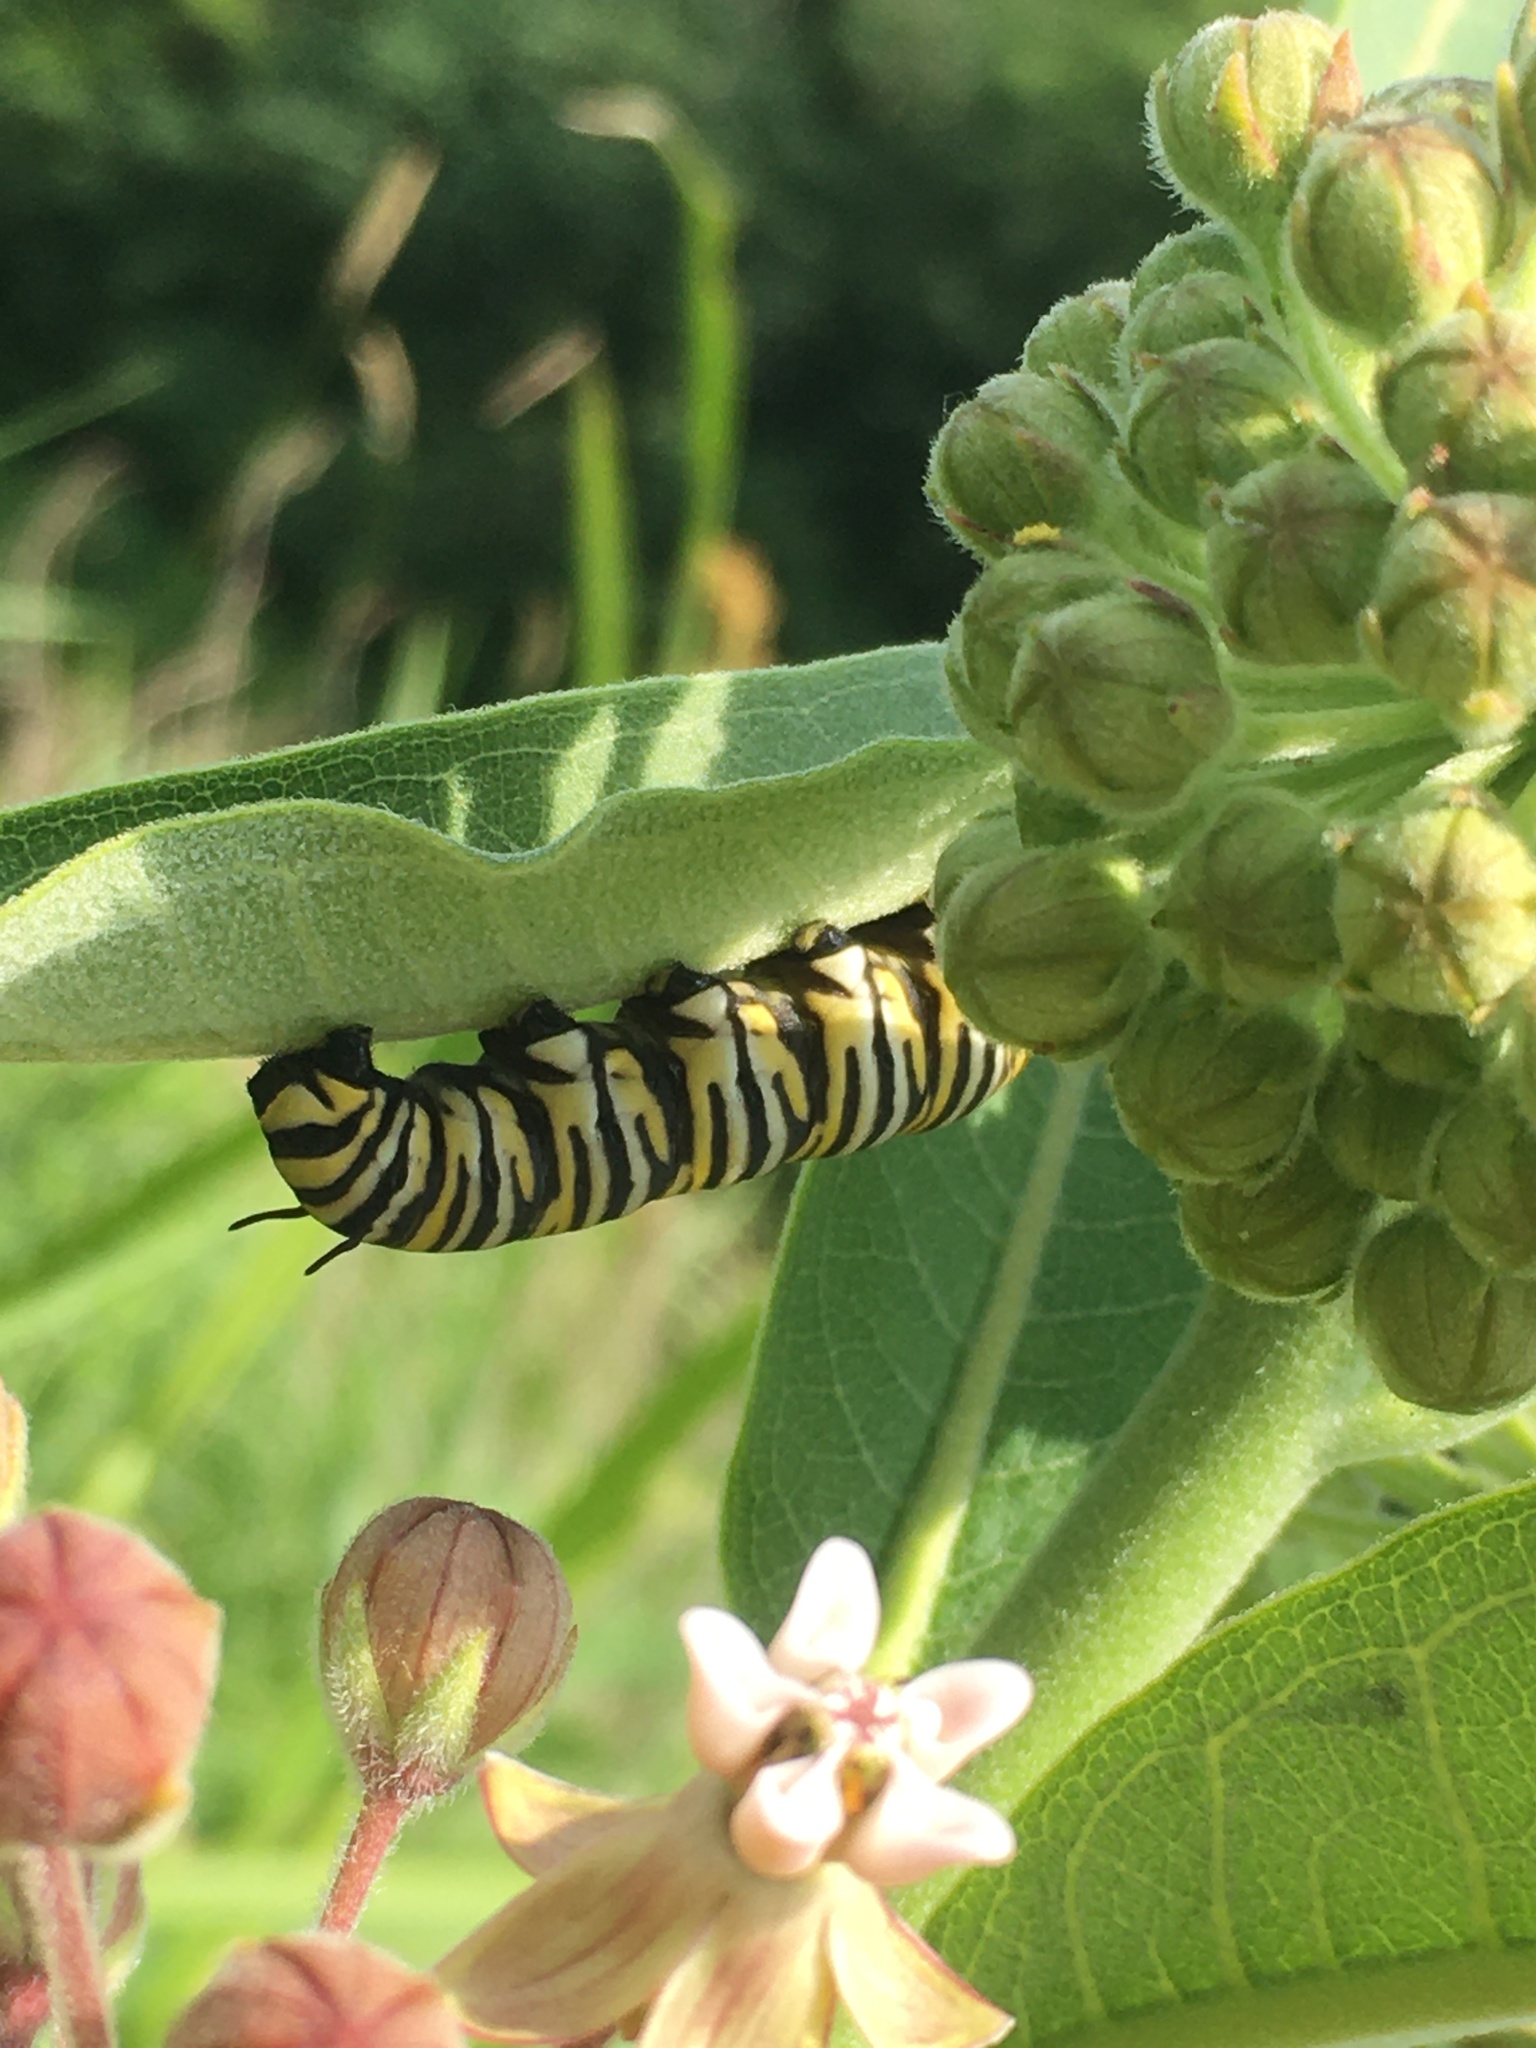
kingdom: Animalia
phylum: Arthropoda
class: Insecta
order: Lepidoptera
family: Nymphalidae
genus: Danaus
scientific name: Danaus plexippus
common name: Monarch
